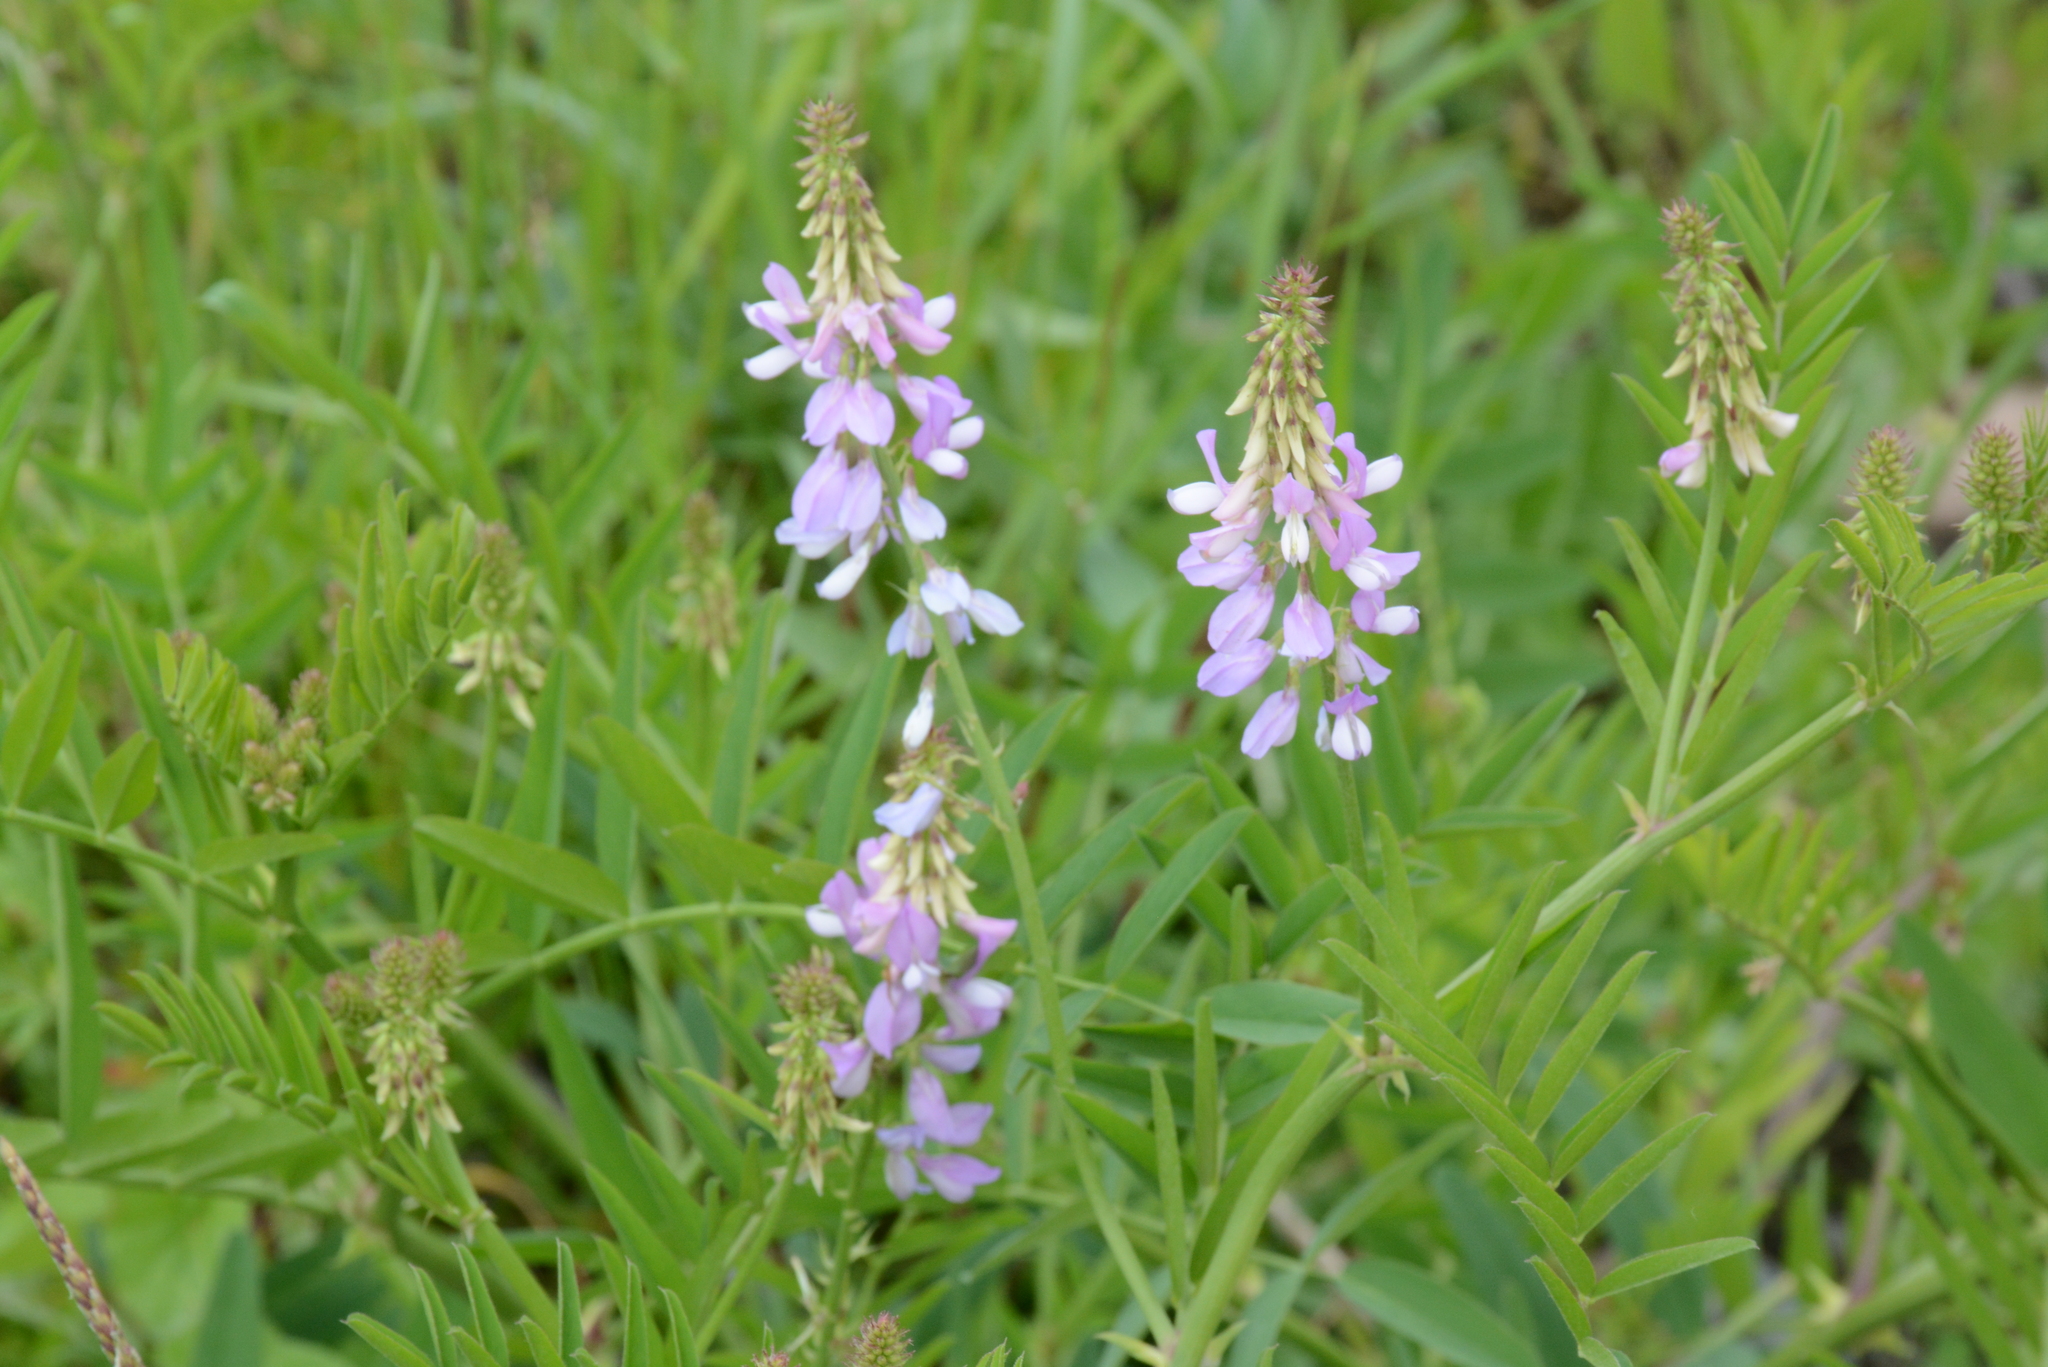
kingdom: Plantae
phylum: Tracheophyta
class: Magnoliopsida
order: Fabales
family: Fabaceae
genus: Galega
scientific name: Galega officinalis
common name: Goat's-rue
